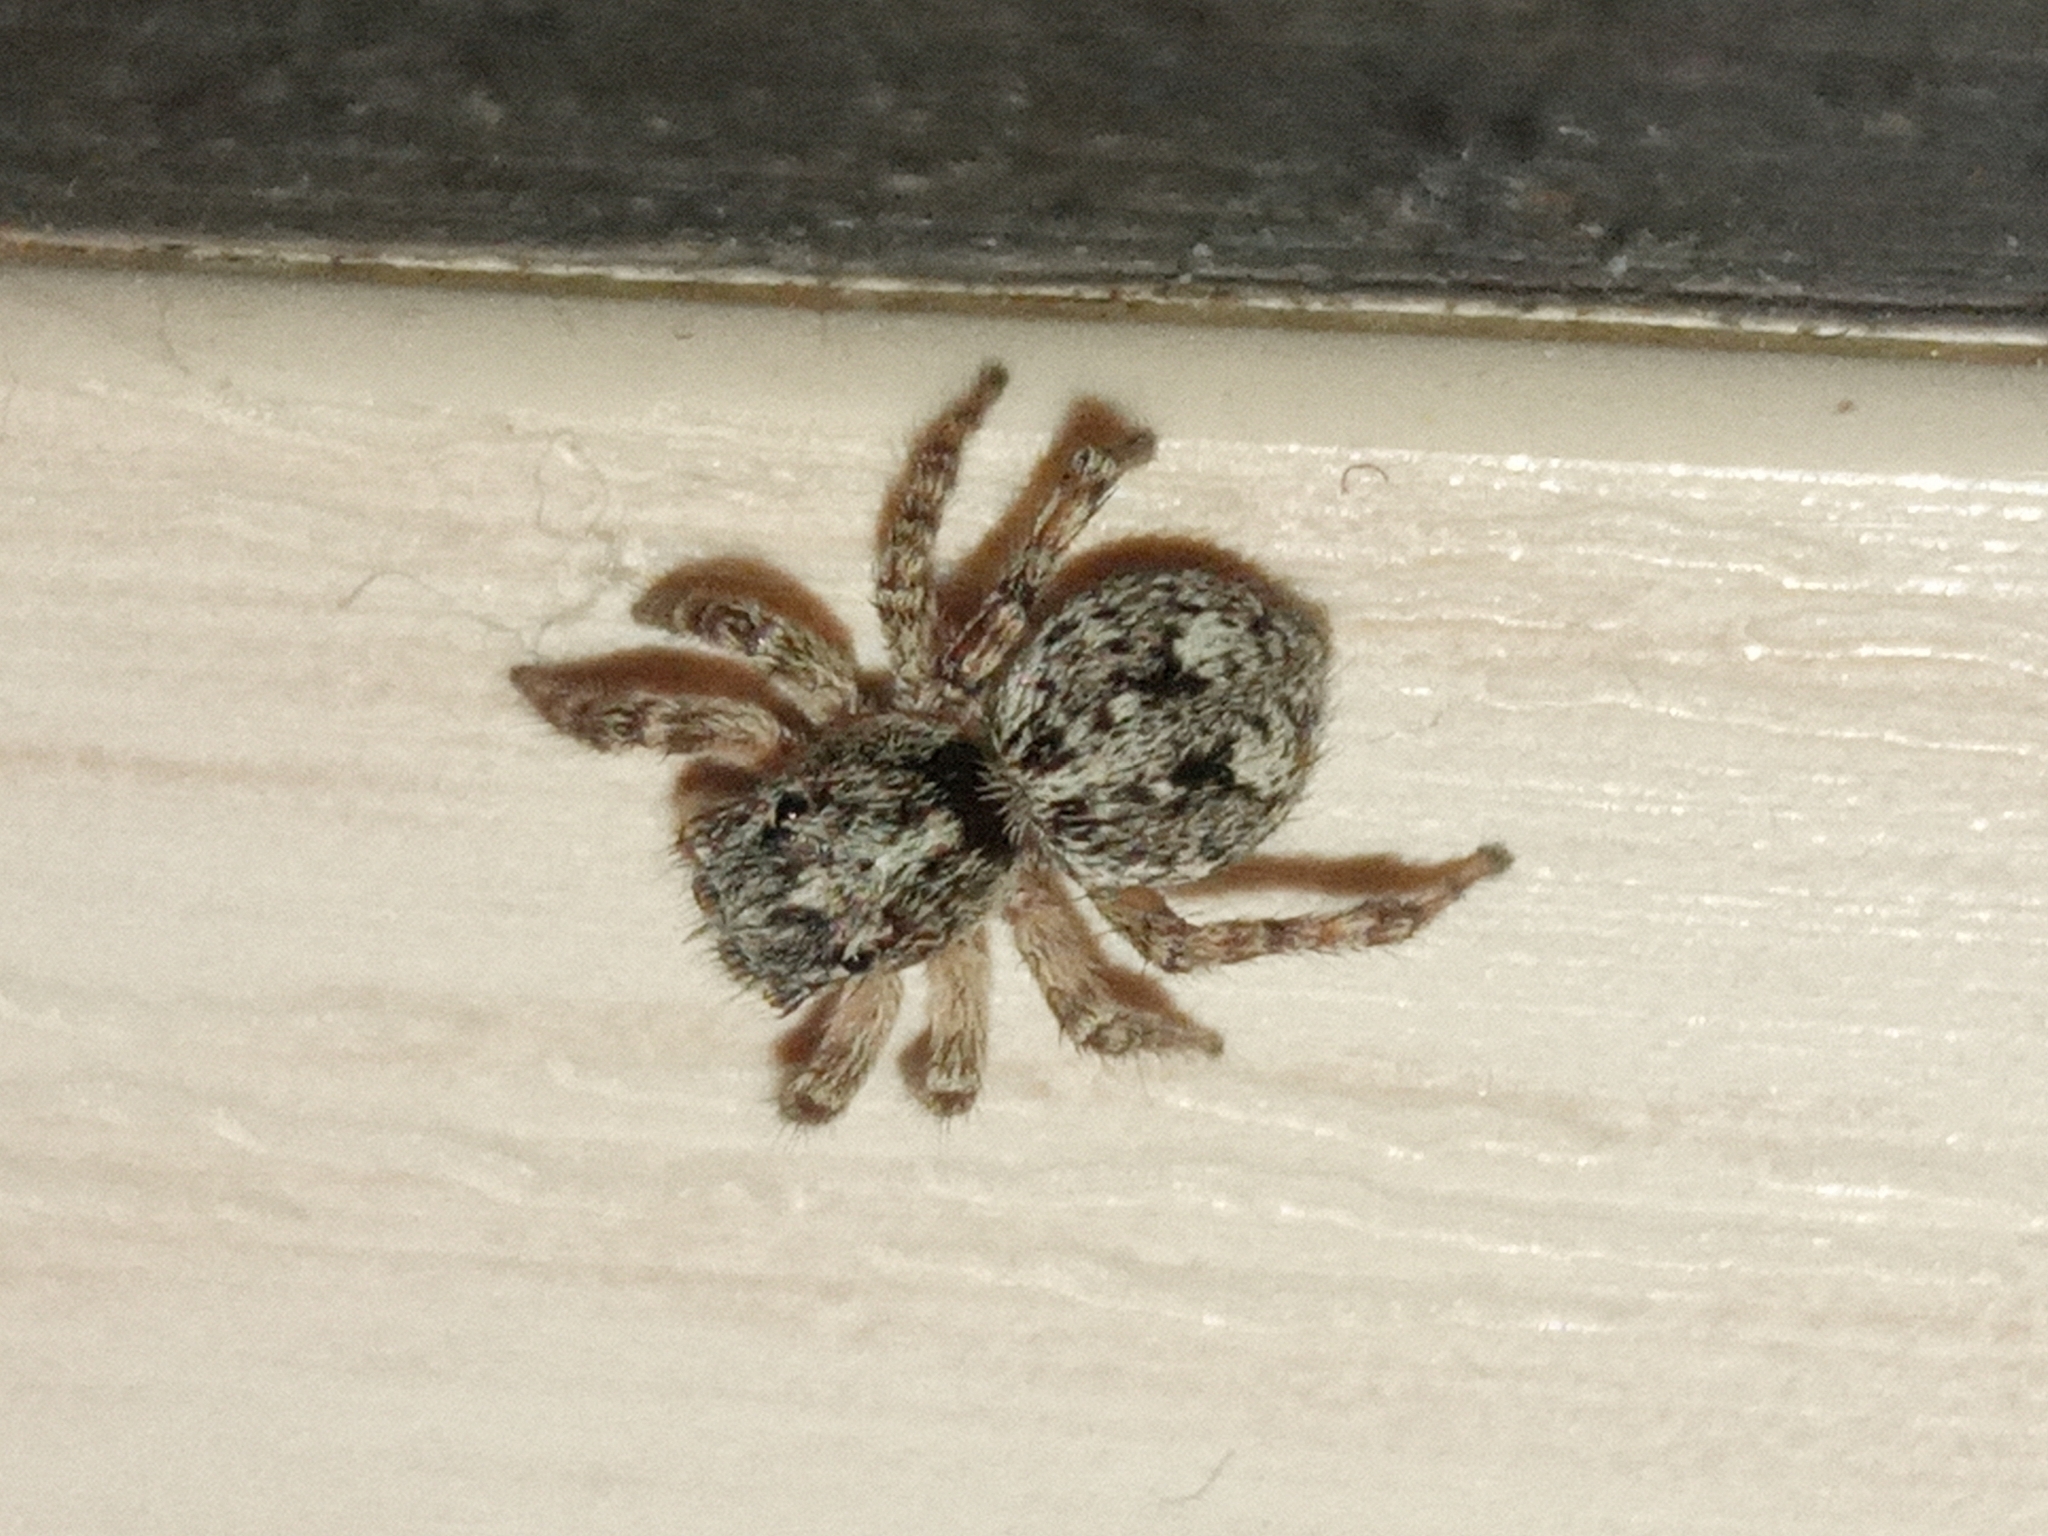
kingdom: Animalia
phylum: Arthropoda
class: Arachnida
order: Araneae
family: Salticidae
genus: Attulus
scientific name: Attulus relictarius
